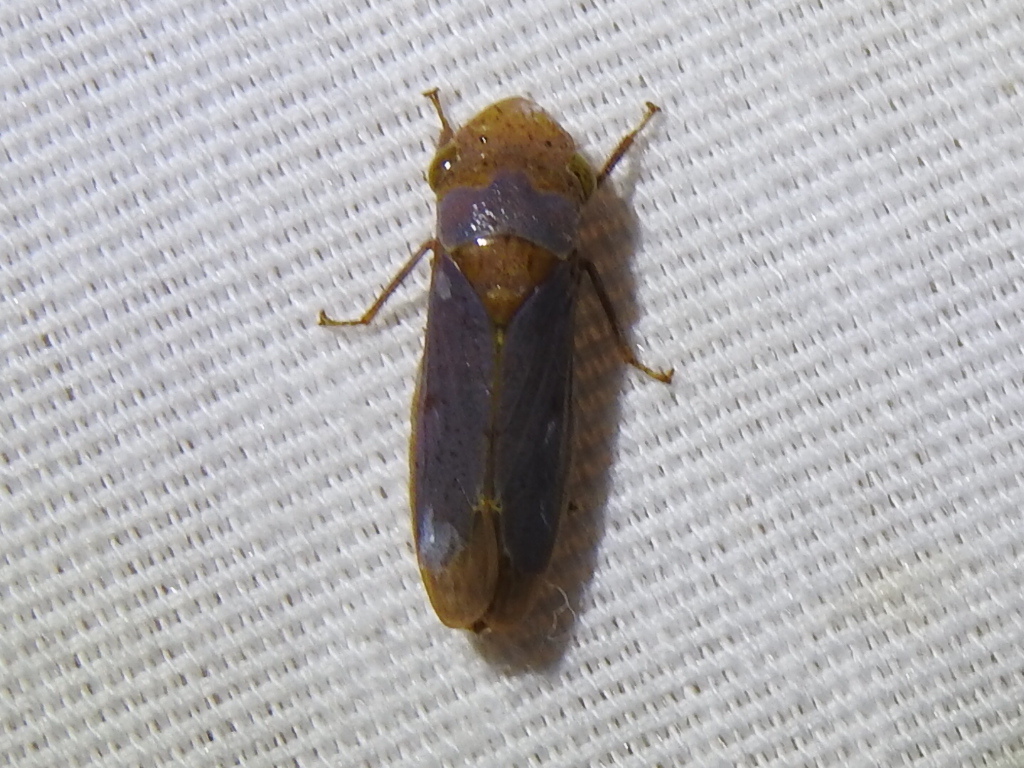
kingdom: Animalia
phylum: Arthropoda
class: Insecta
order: Hemiptera
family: Cicadellidae
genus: Oncometopia
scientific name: Oncometopia hamiltoni
